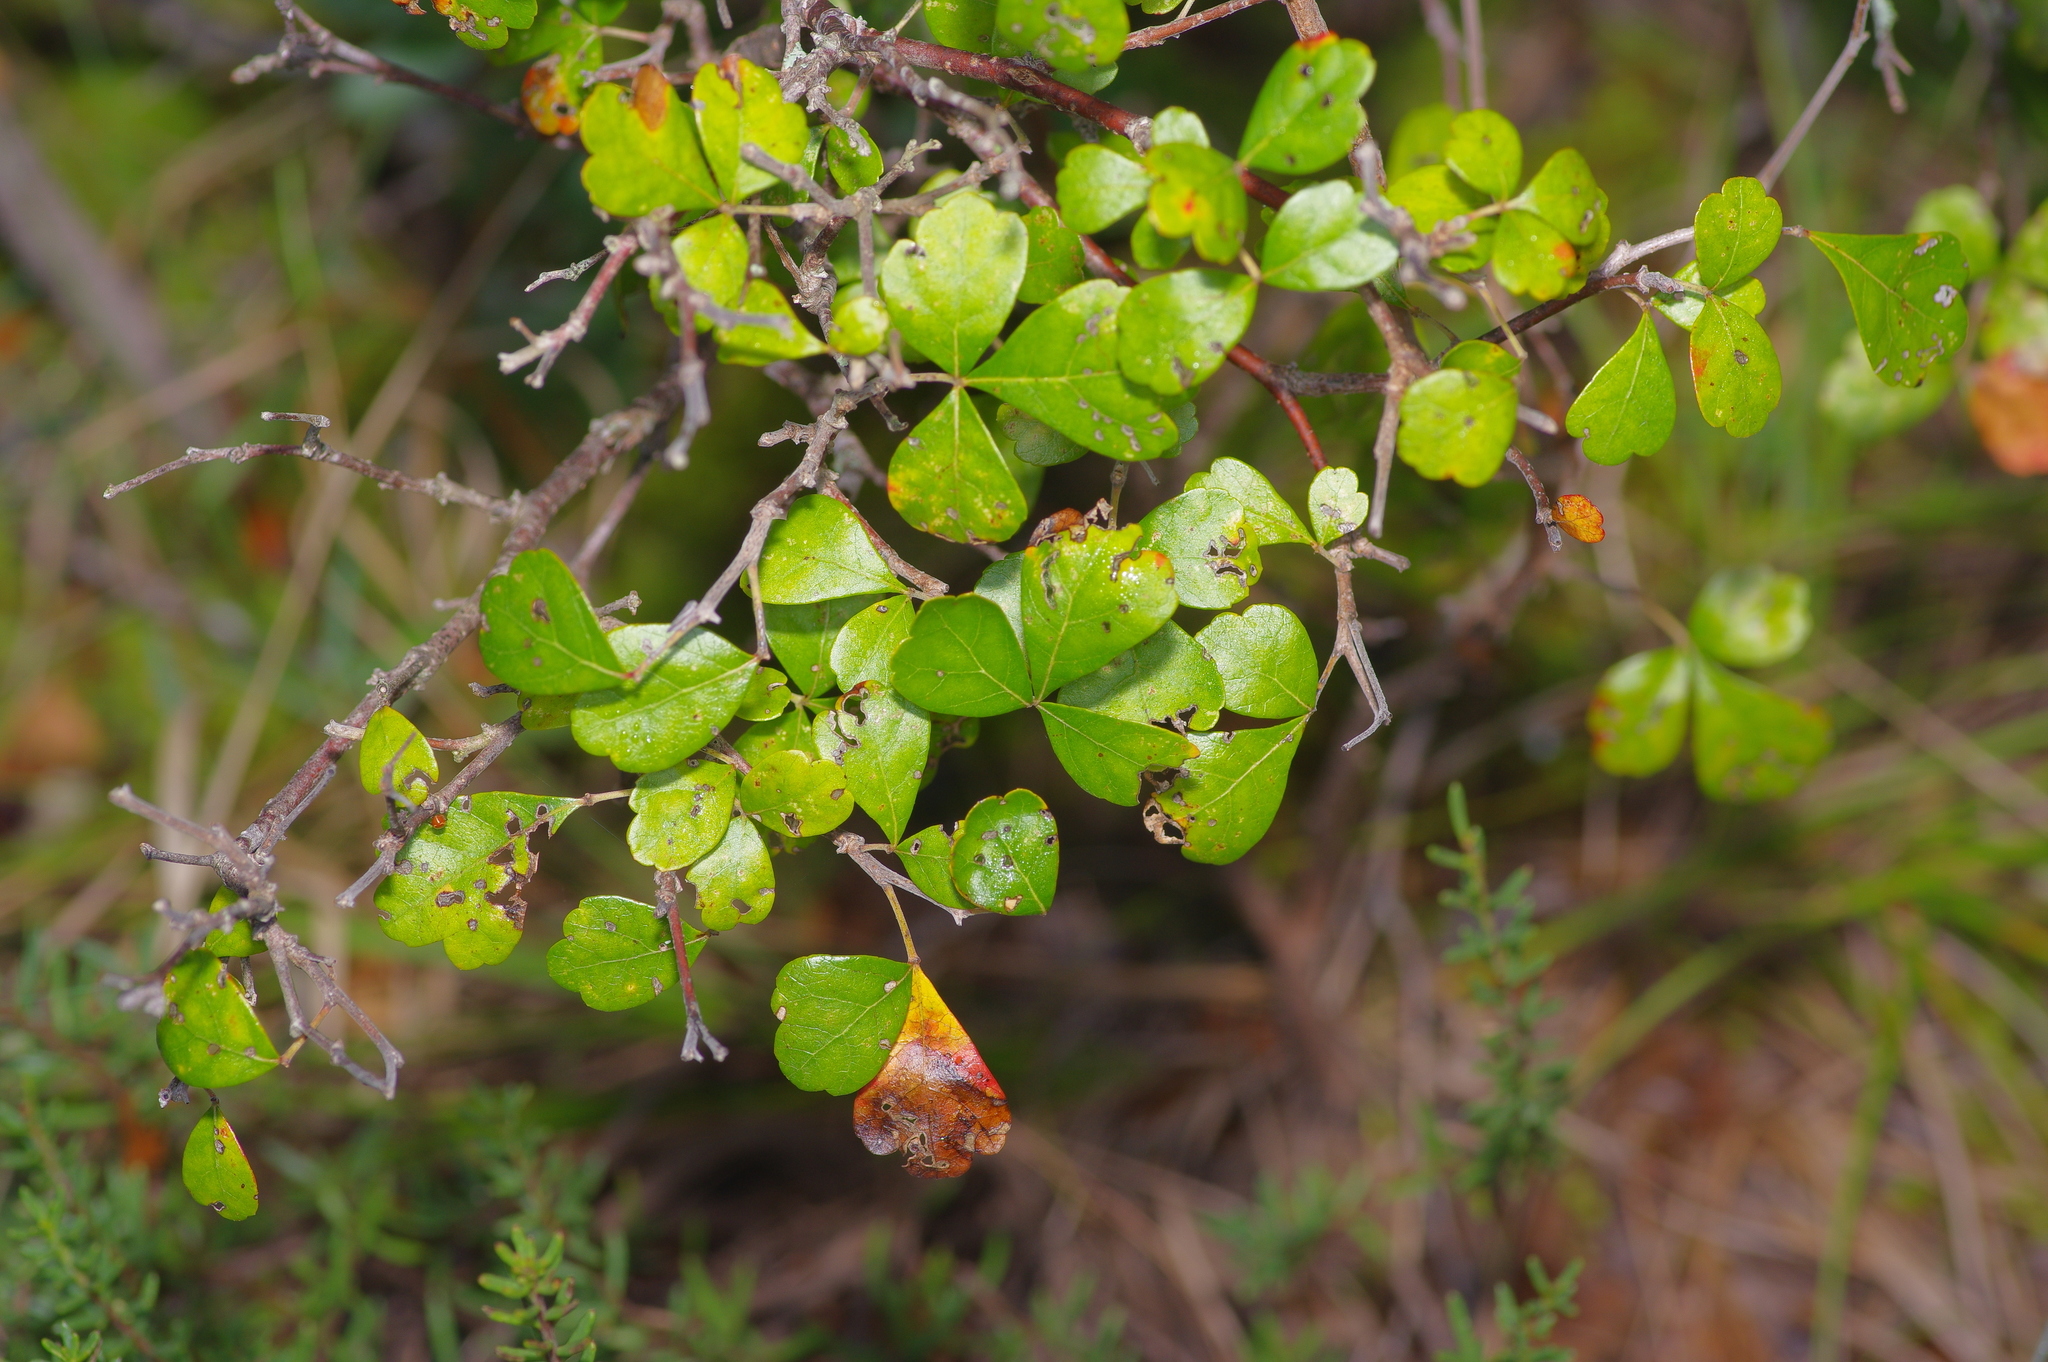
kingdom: Plantae
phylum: Tracheophyta
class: Magnoliopsida
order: Sapindales
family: Anacardiaceae
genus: Rhus
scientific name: Rhus aromatica
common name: Aromatic sumac
